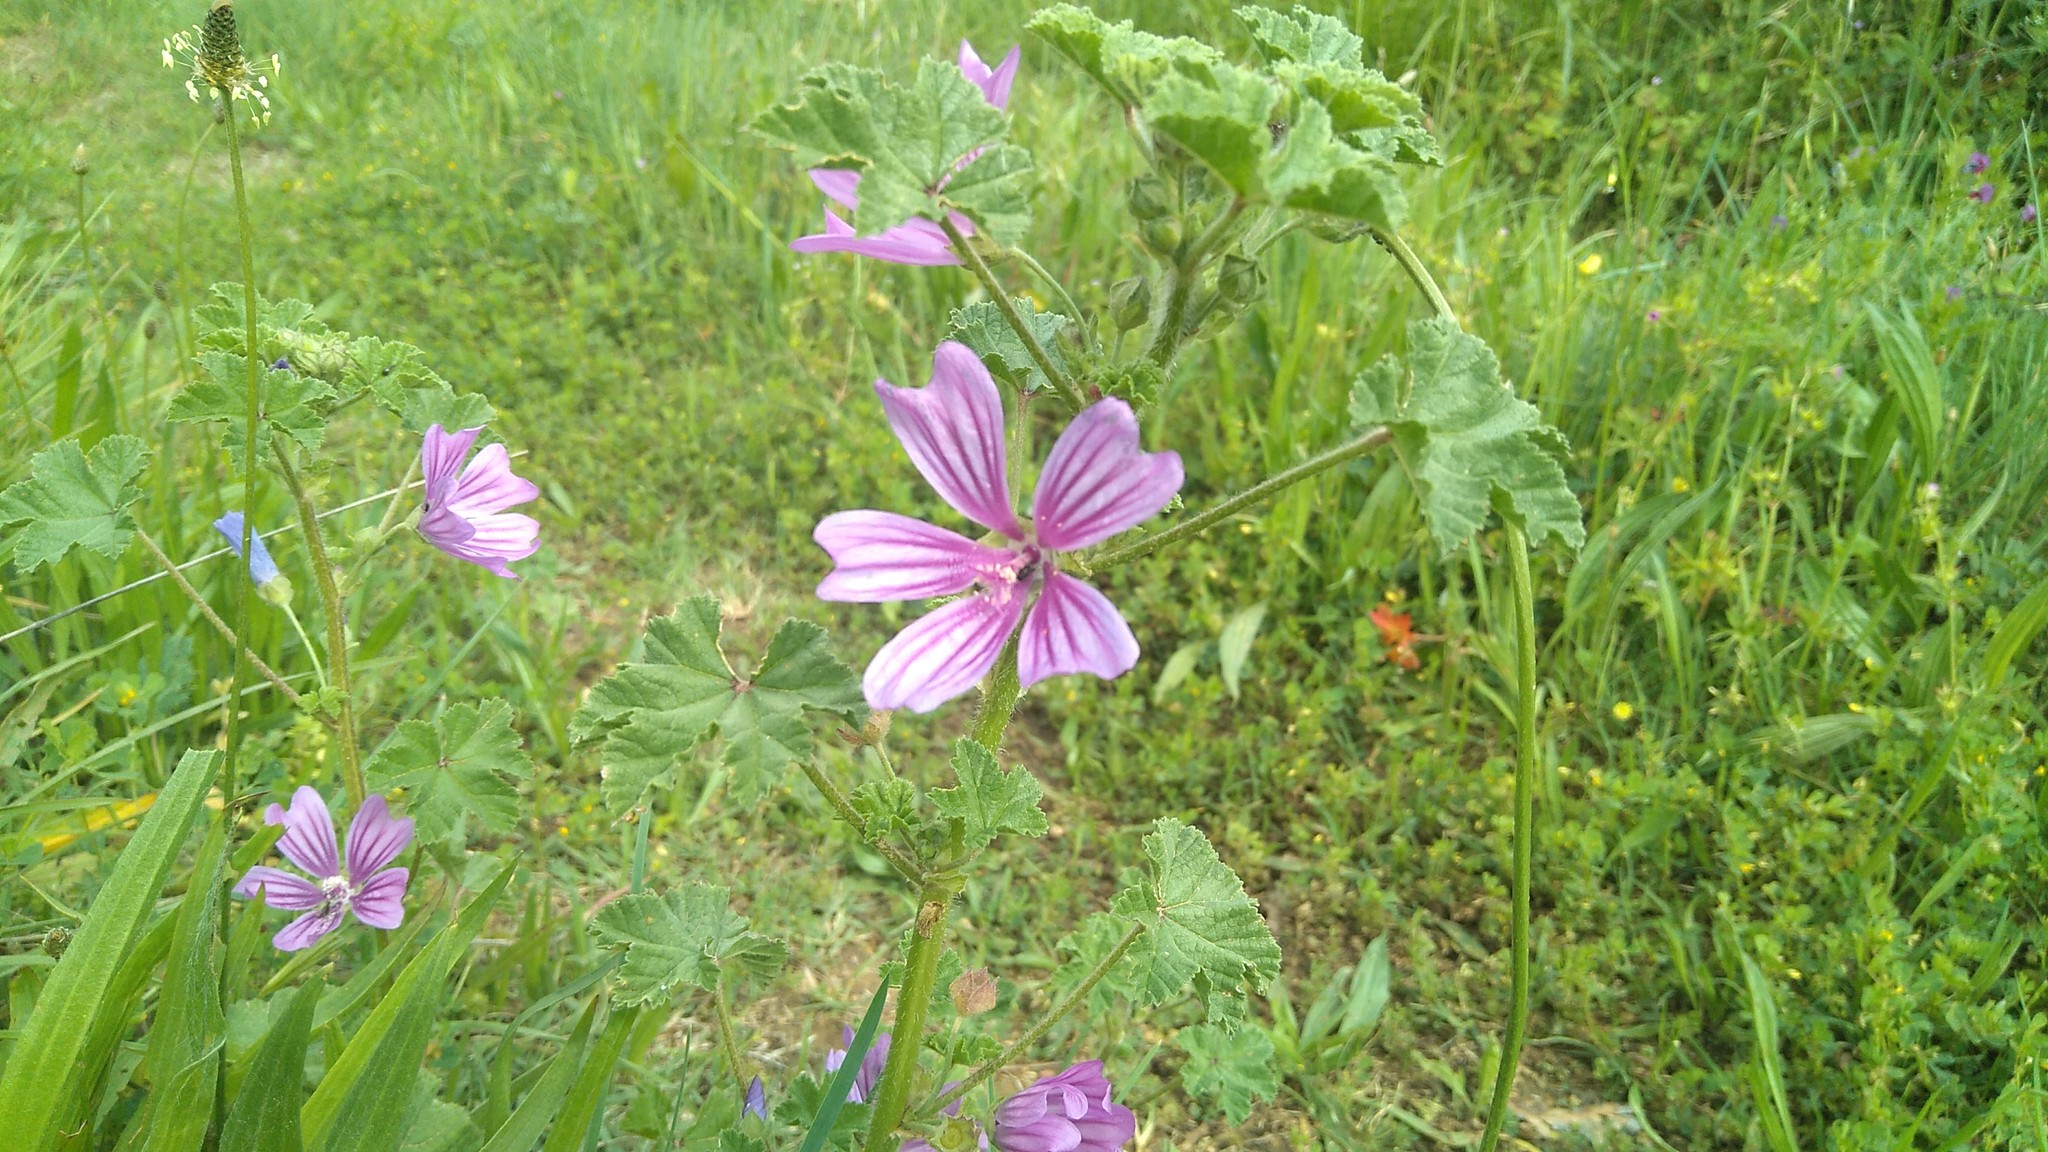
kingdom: Plantae
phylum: Tracheophyta
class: Magnoliopsida
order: Malvales
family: Malvaceae
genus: Malva
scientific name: Malva sylvestris
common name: Common mallow
